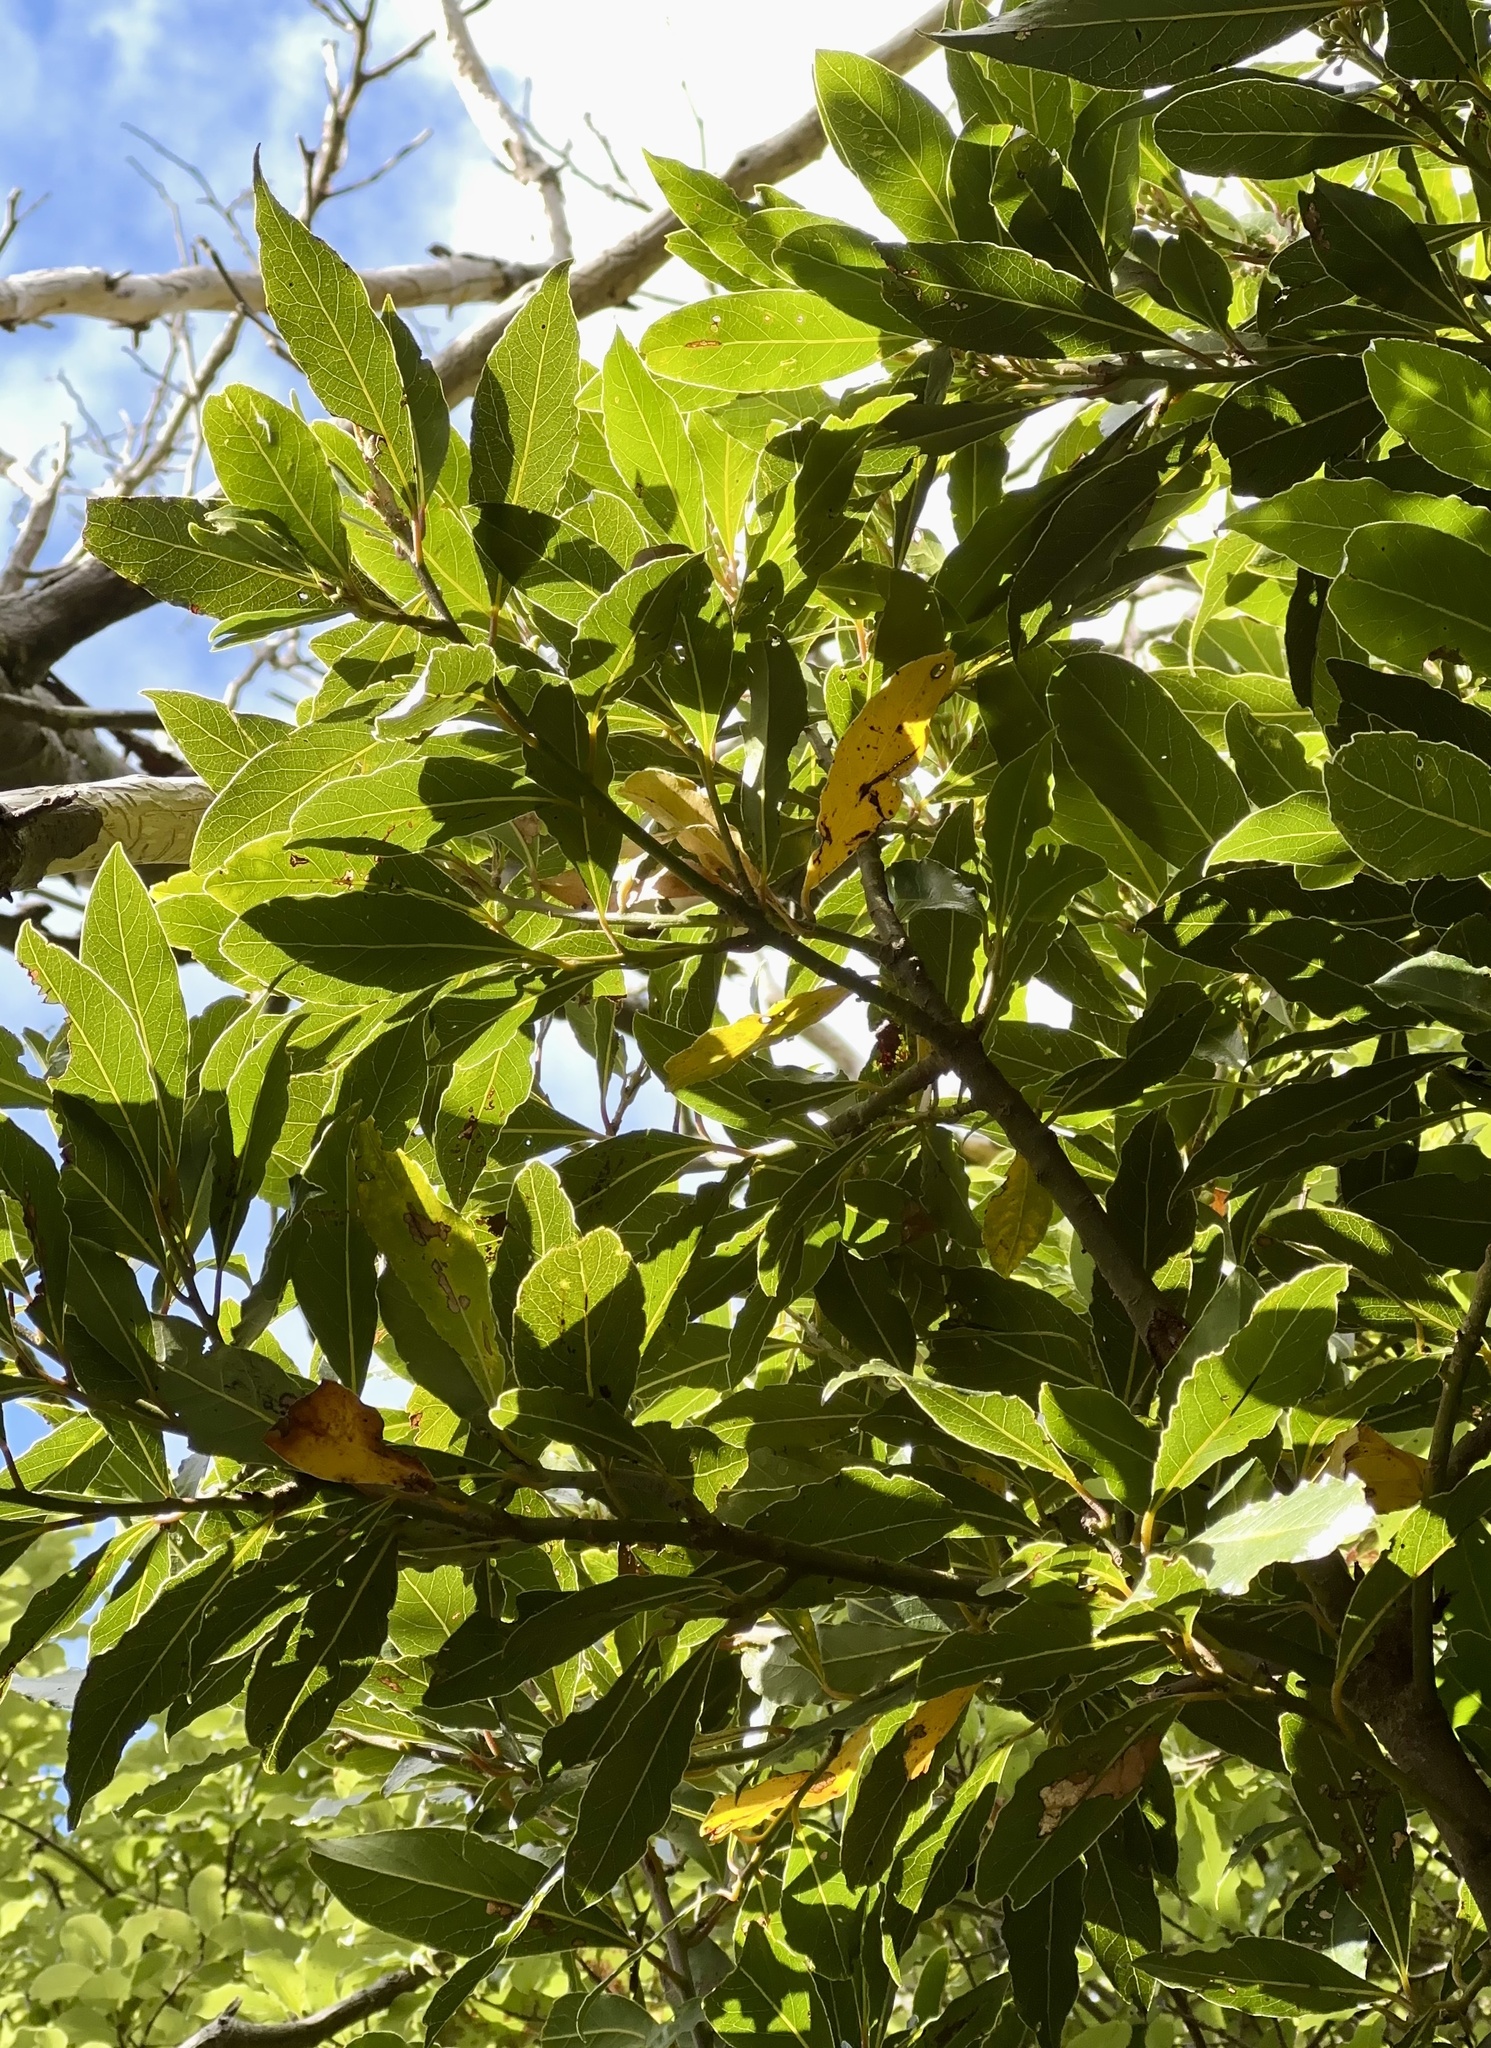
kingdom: Plantae
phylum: Tracheophyta
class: Magnoliopsida
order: Laurales
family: Lauraceae
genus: Laurus
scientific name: Laurus nobilis
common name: Bay
